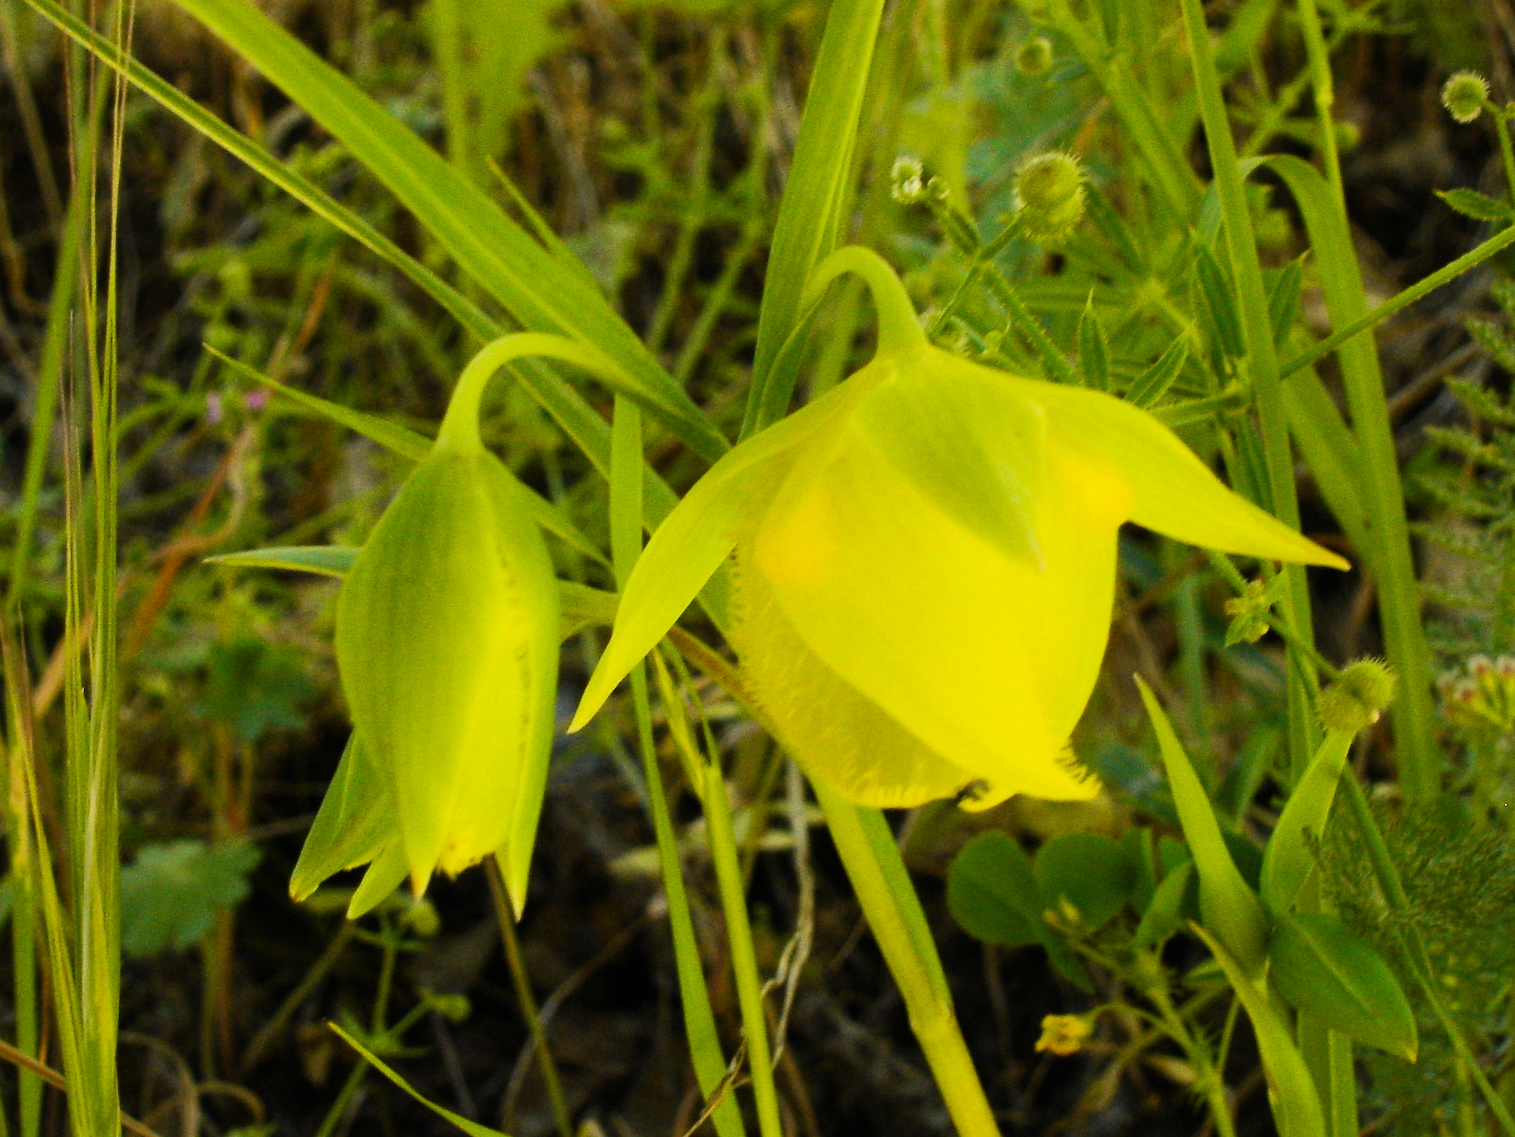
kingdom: Plantae
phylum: Tracheophyta
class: Liliopsida
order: Liliales
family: Liliaceae
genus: Calochortus
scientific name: Calochortus pulchellus
